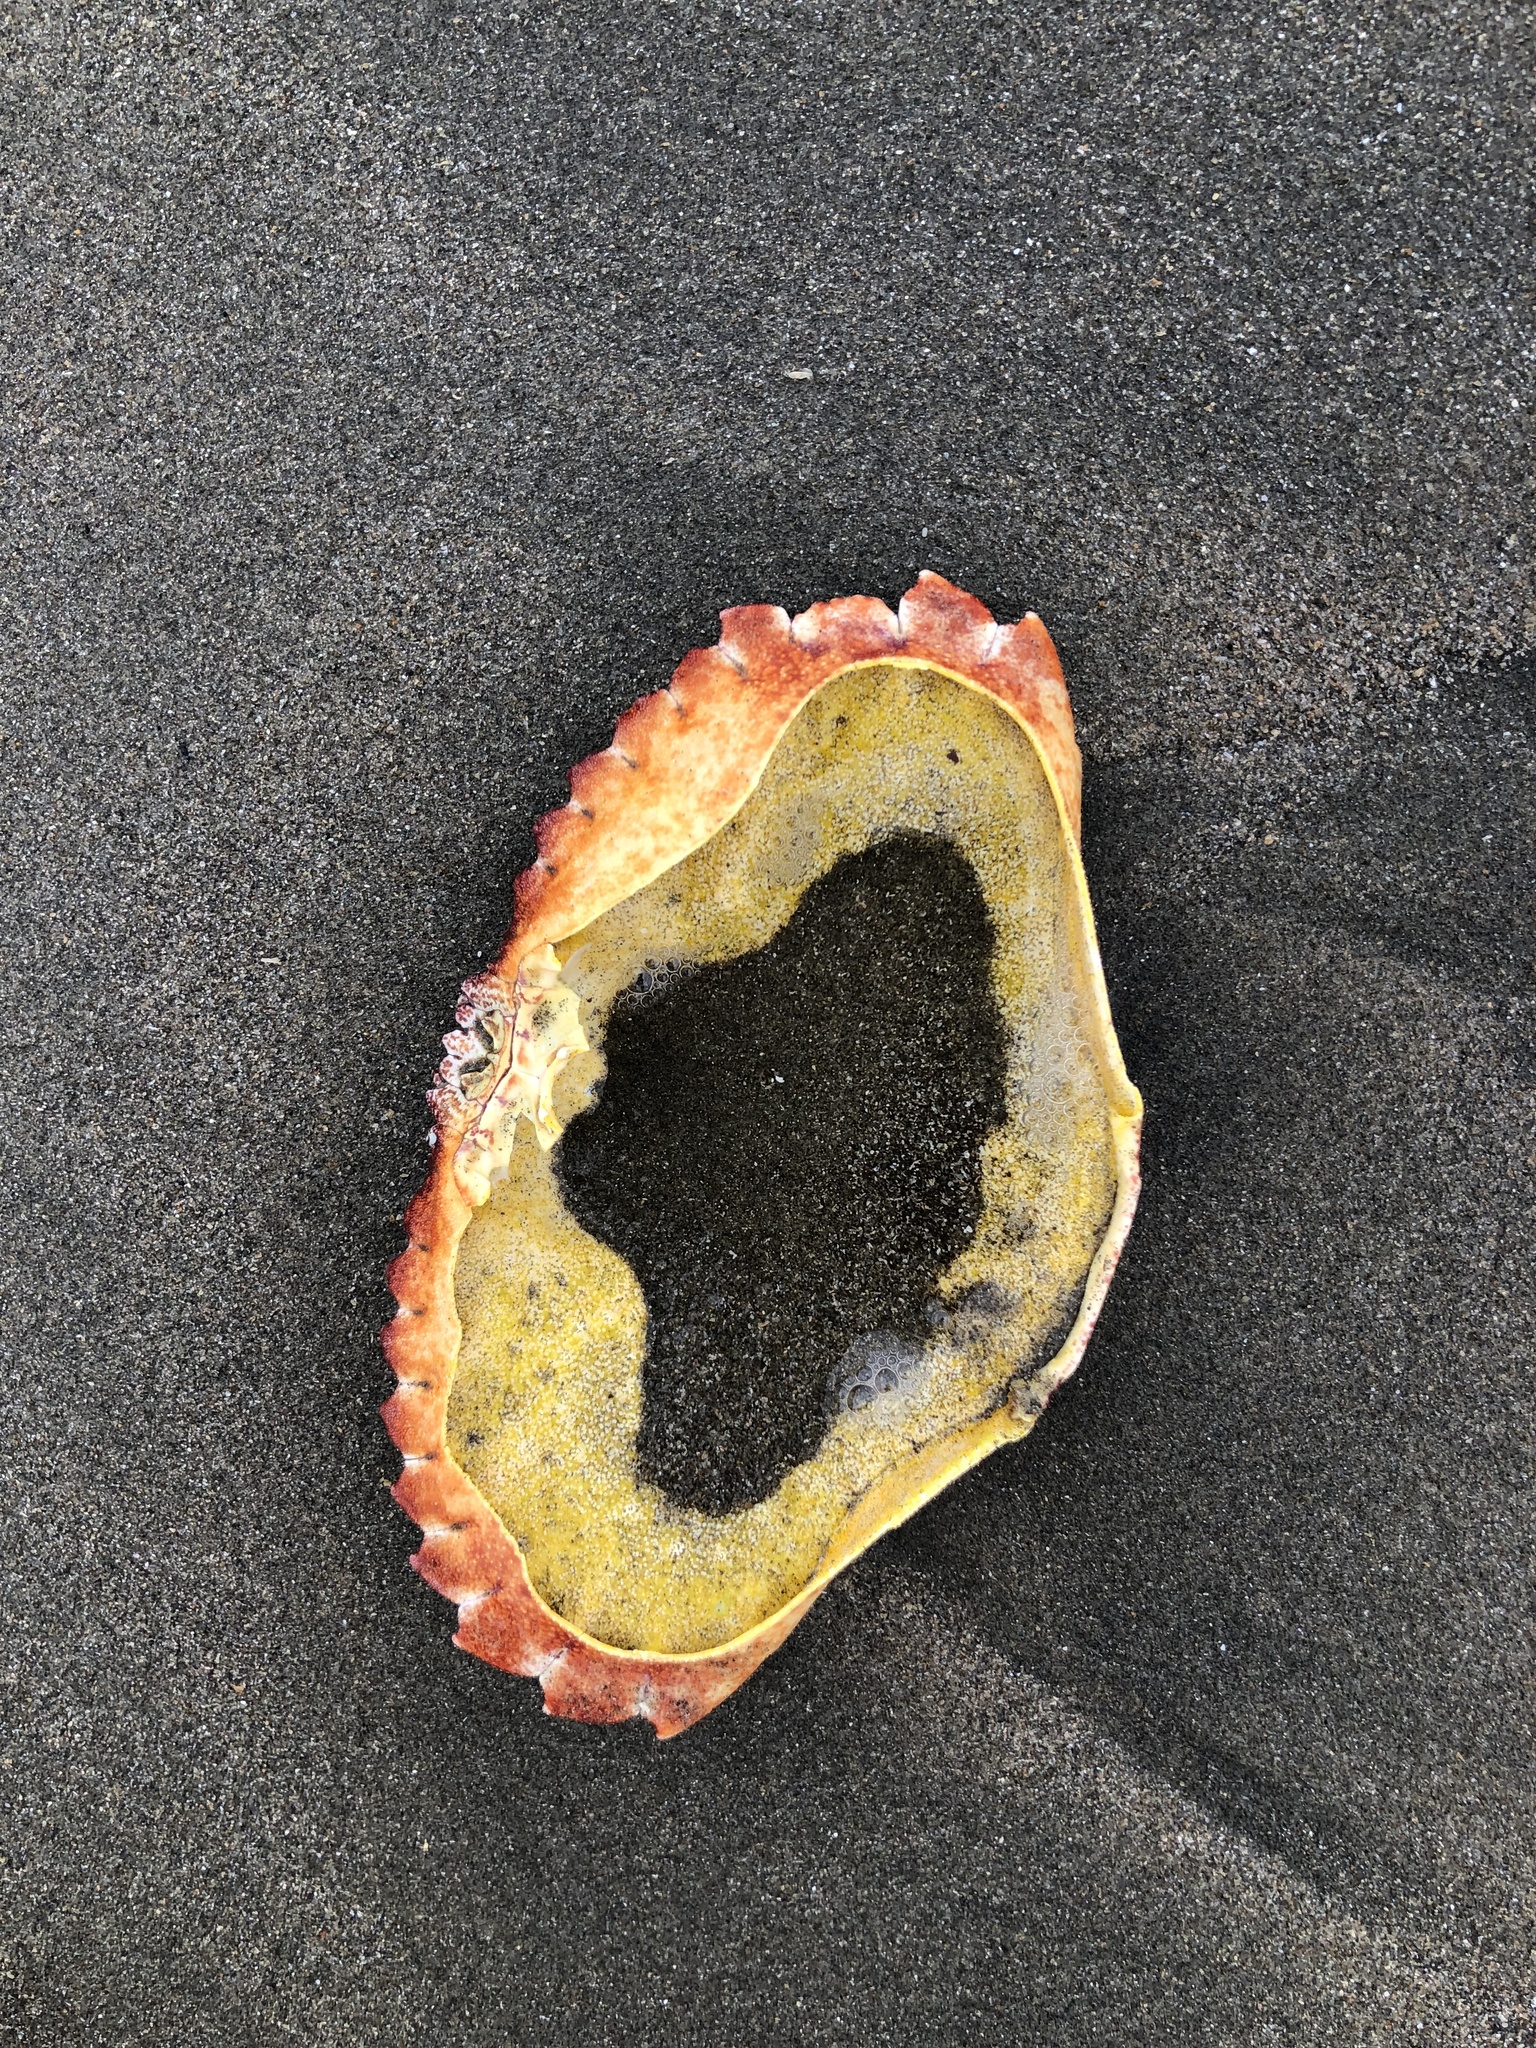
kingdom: Animalia
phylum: Arthropoda
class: Malacostraca
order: Decapoda
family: Cancridae
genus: Cancer
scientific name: Cancer productus
